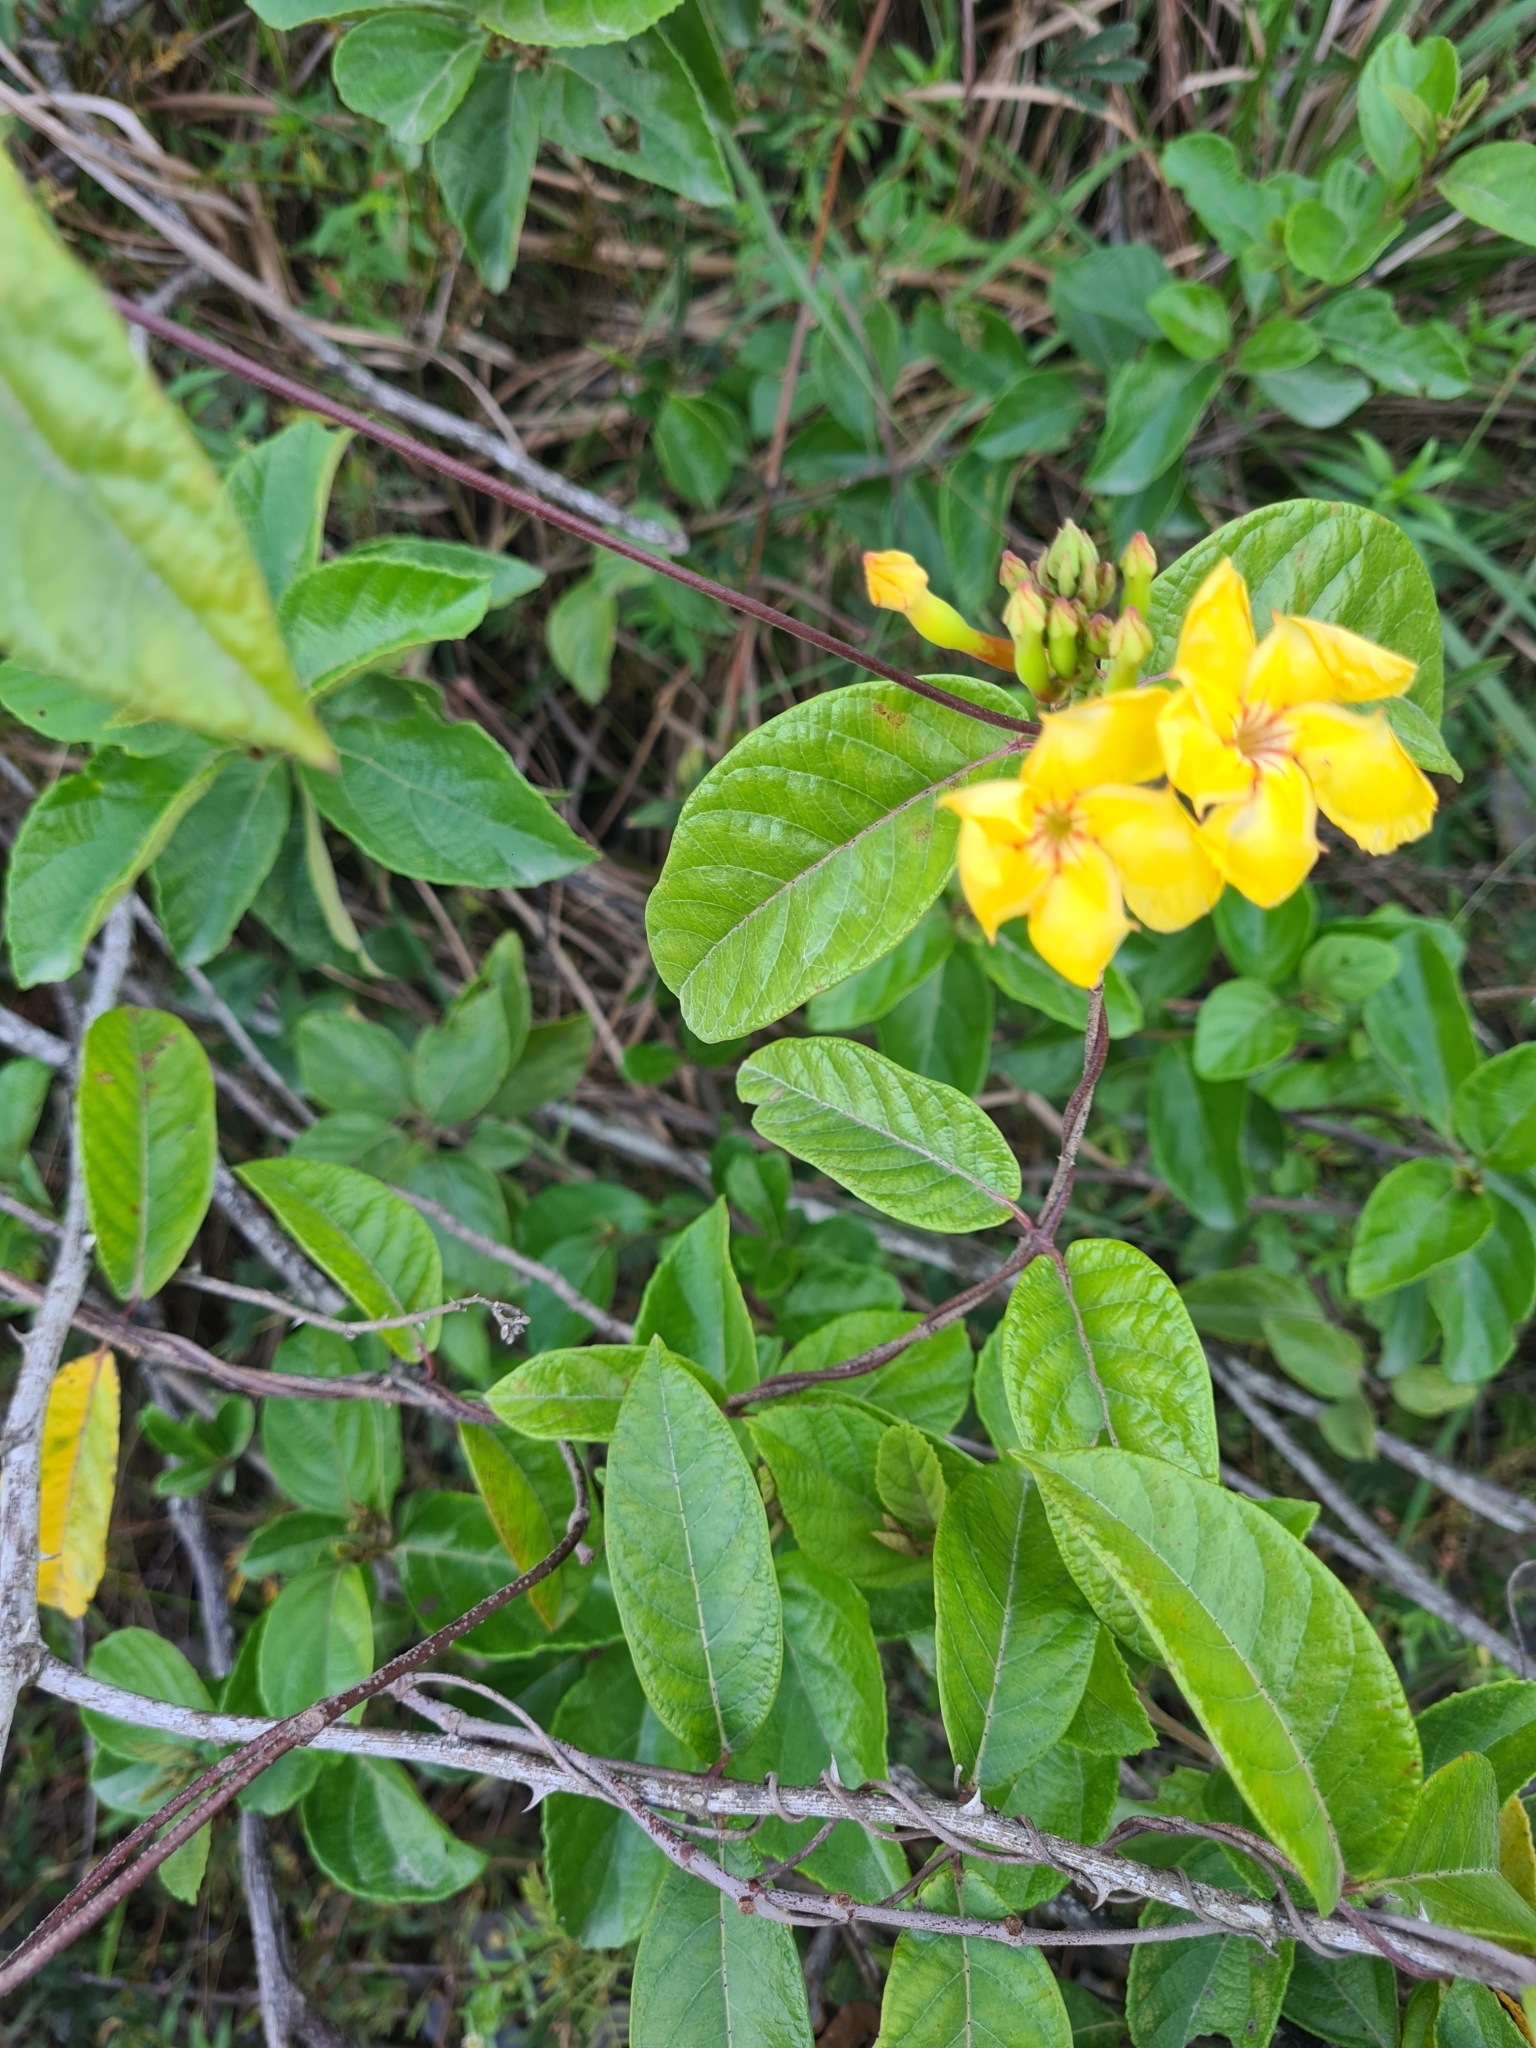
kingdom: Plantae
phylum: Tracheophyta
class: Magnoliopsida
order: Gentianales
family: Apocynaceae
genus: Mandevilla
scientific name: Mandevilla rugellosa
